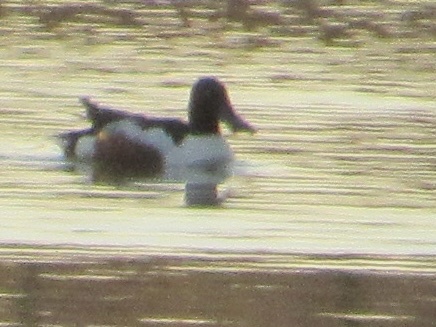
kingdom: Animalia
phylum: Chordata
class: Aves
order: Anseriformes
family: Anatidae
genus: Spatula
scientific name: Spatula clypeata
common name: Northern shoveler
